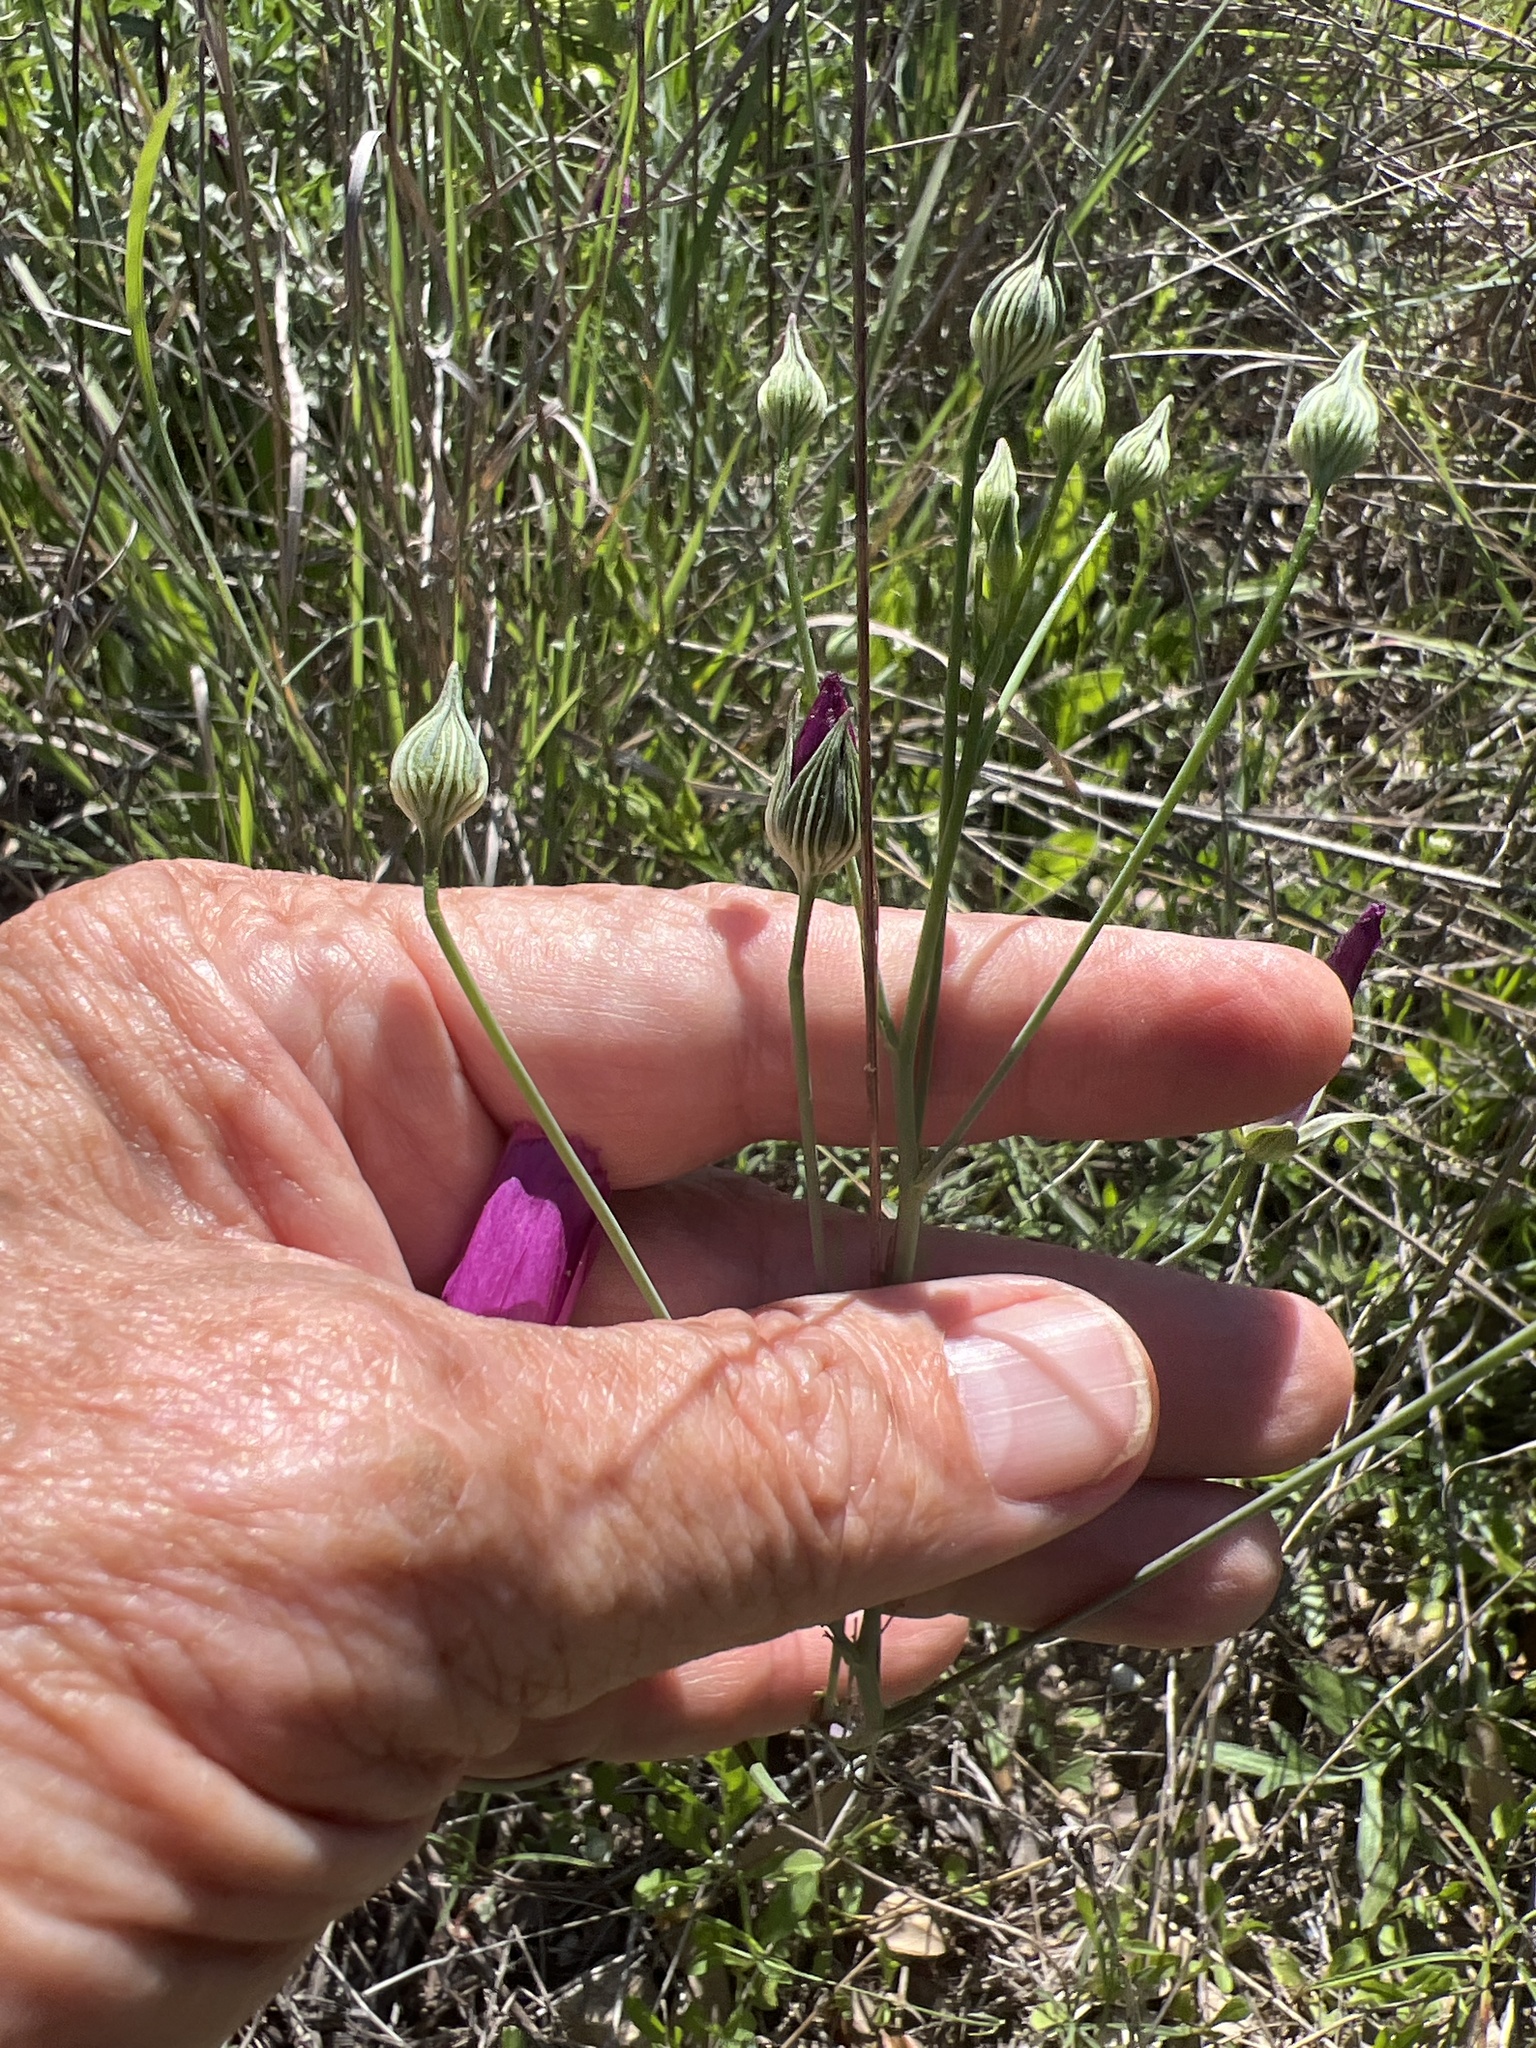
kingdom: Plantae
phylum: Tracheophyta
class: Magnoliopsida
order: Malvales
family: Malvaceae
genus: Callirhoe
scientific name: Callirhoe pedata
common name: Finger poppy-mallow
